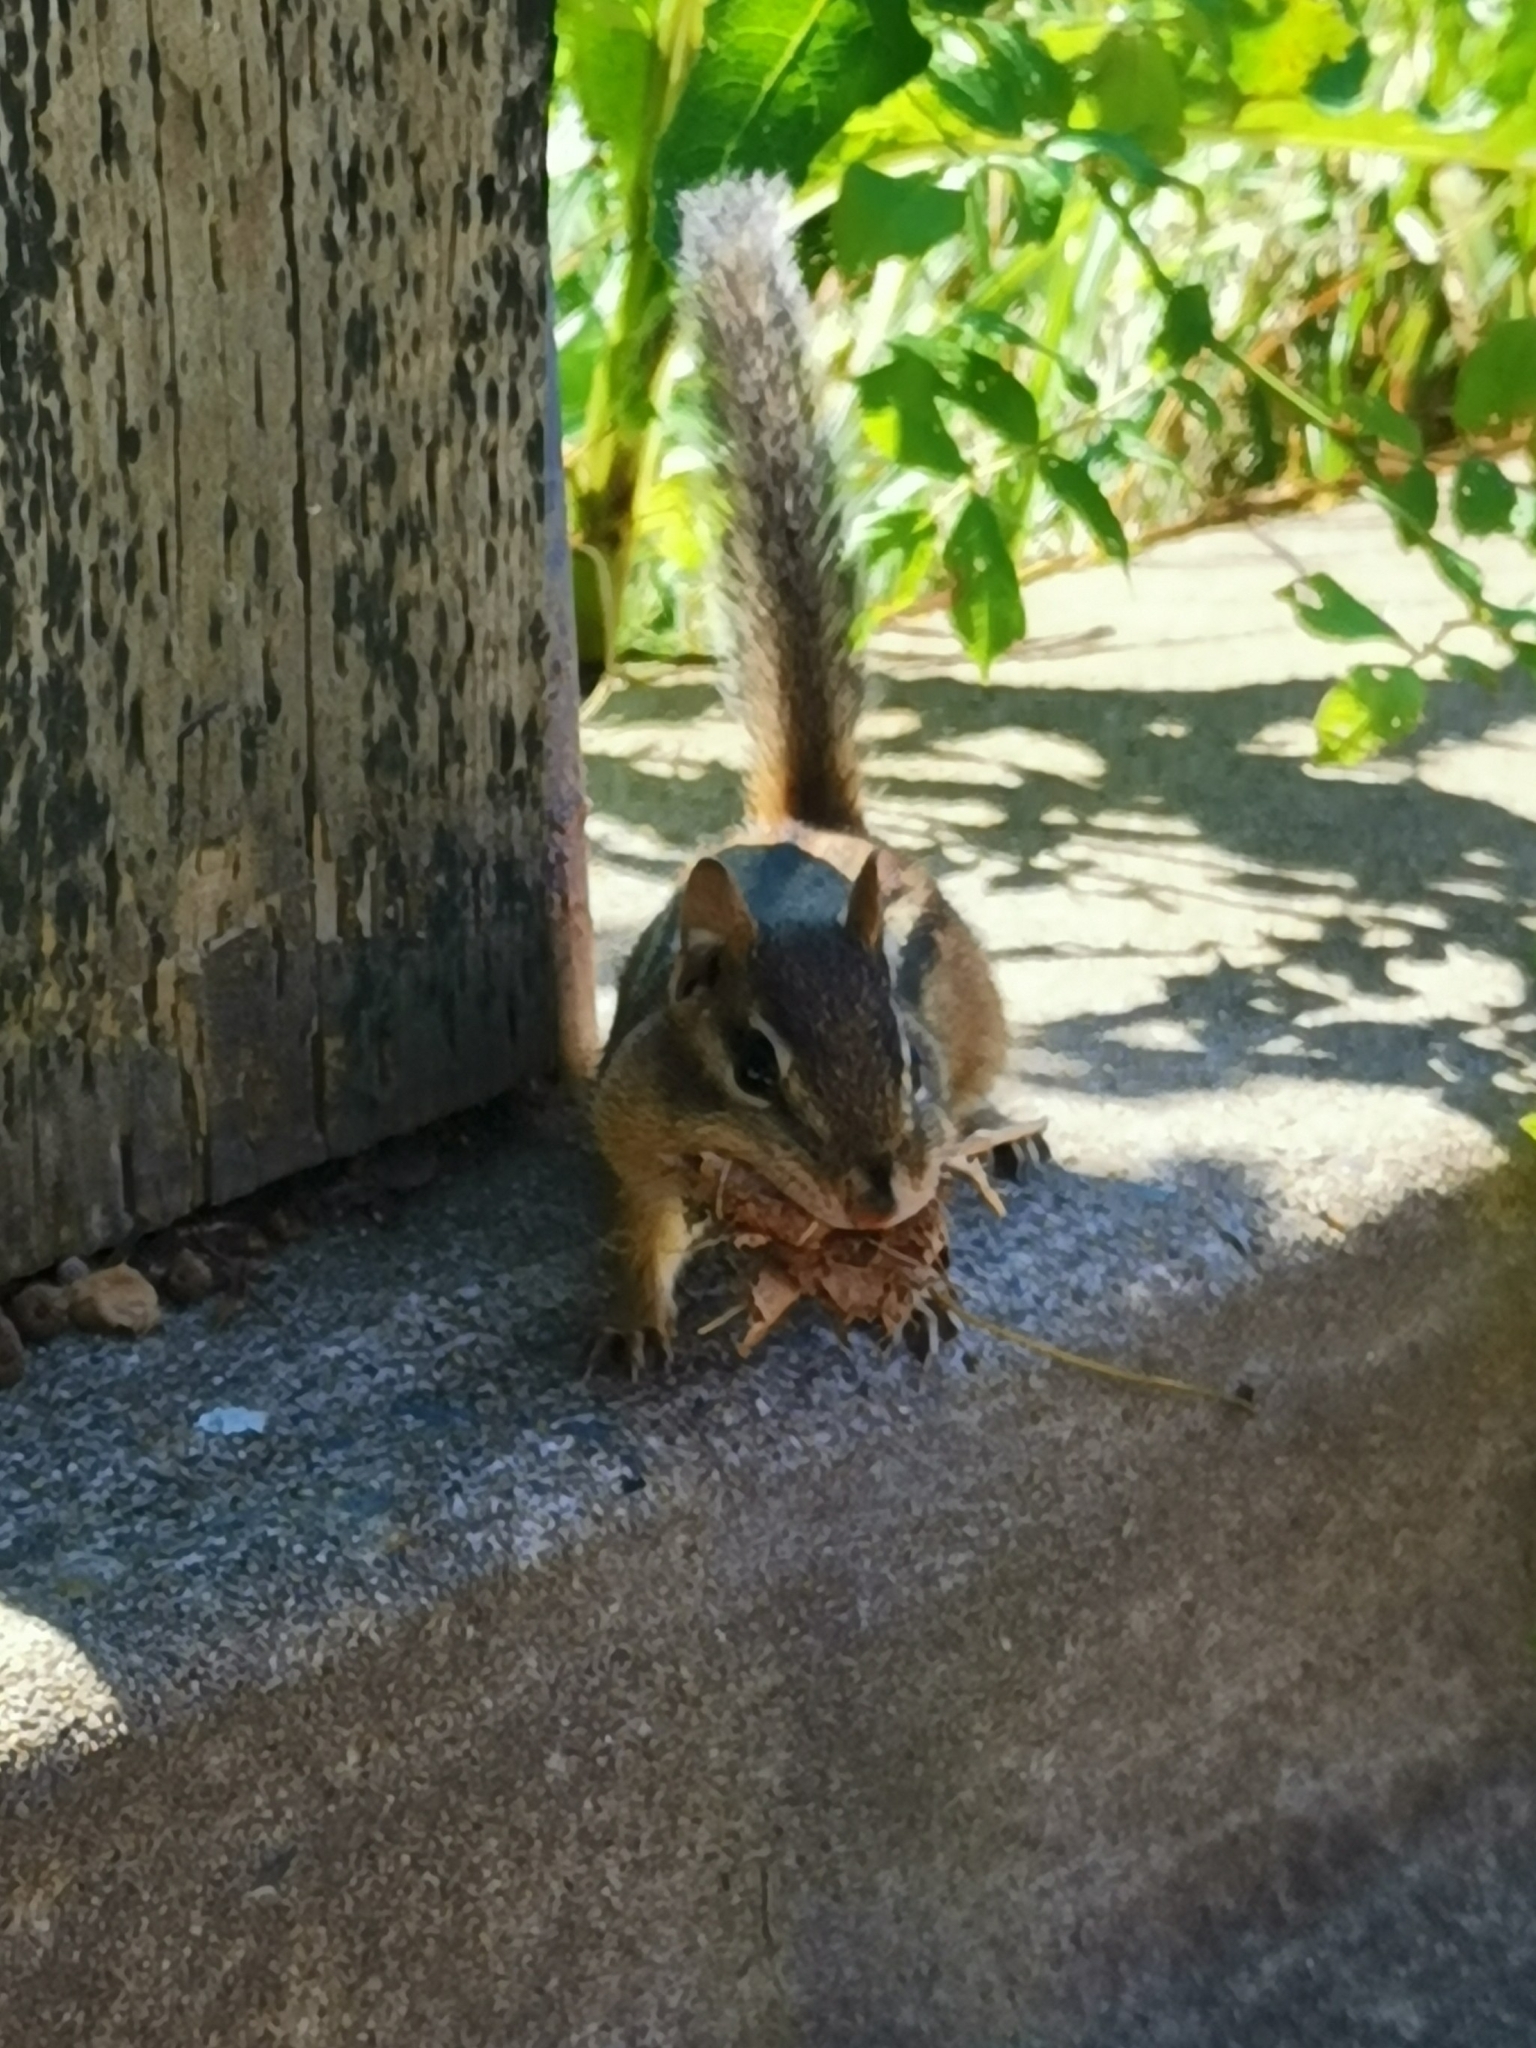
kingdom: Animalia
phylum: Chordata
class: Mammalia
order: Rodentia
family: Sciuridae
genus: Tamias
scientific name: Tamias striatus
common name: Eastern chipmunk
